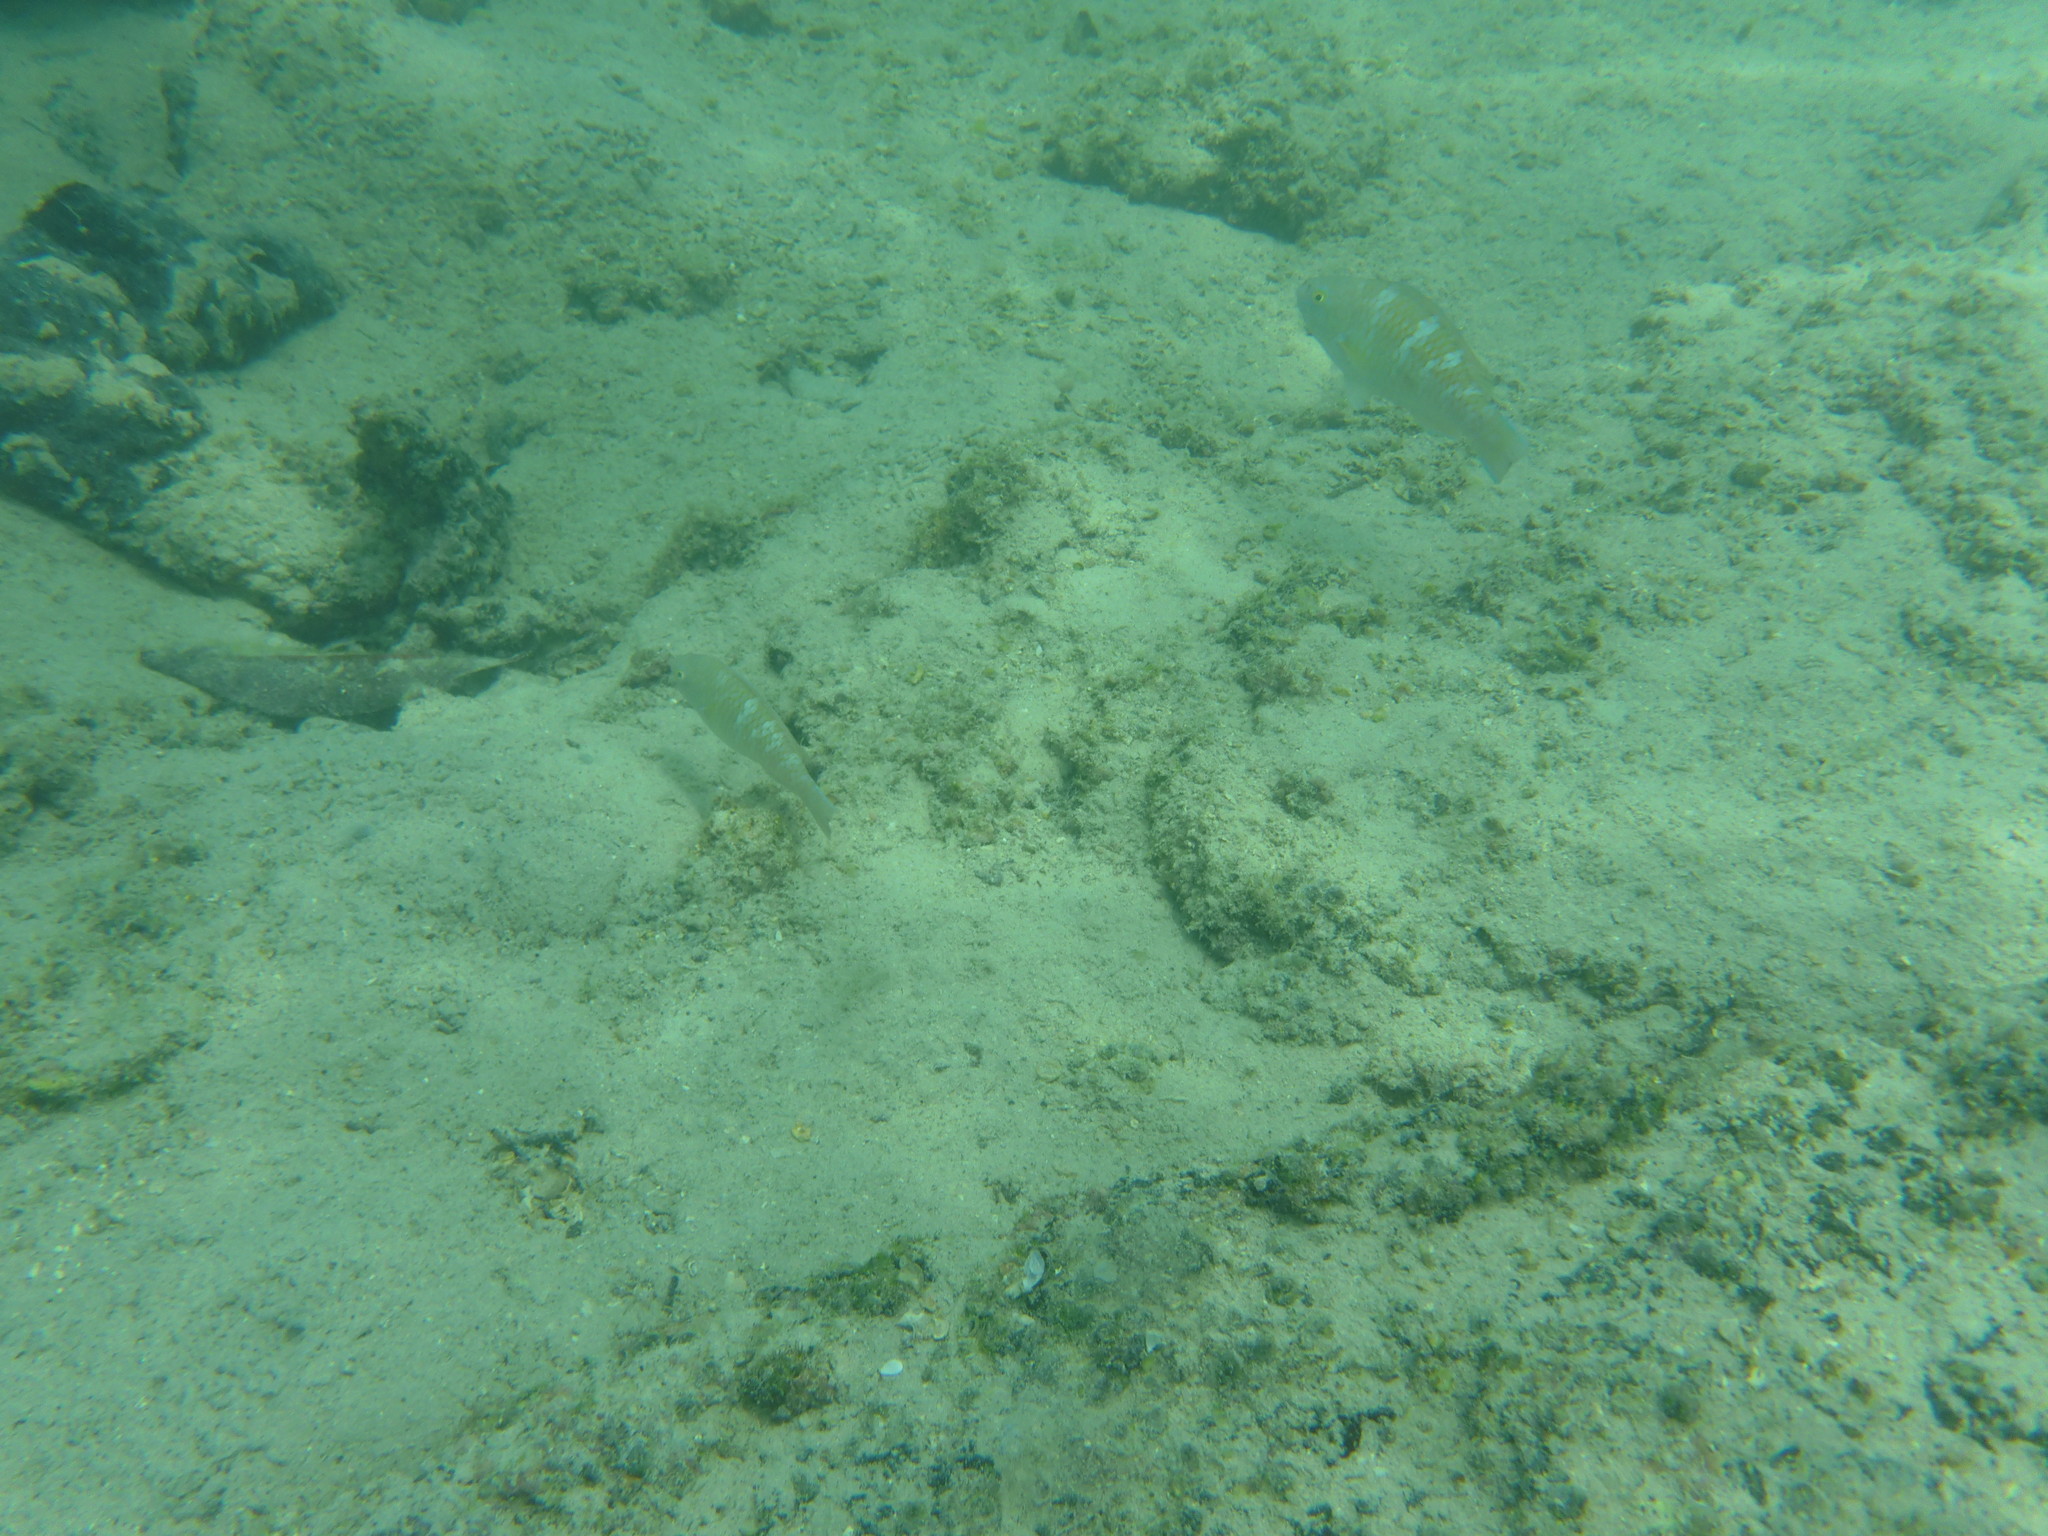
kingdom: Animalia
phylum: Chordata
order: Perciformes
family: Scaridae
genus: Scarus
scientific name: Scarus ghobban
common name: Blue-barred parrotfish
